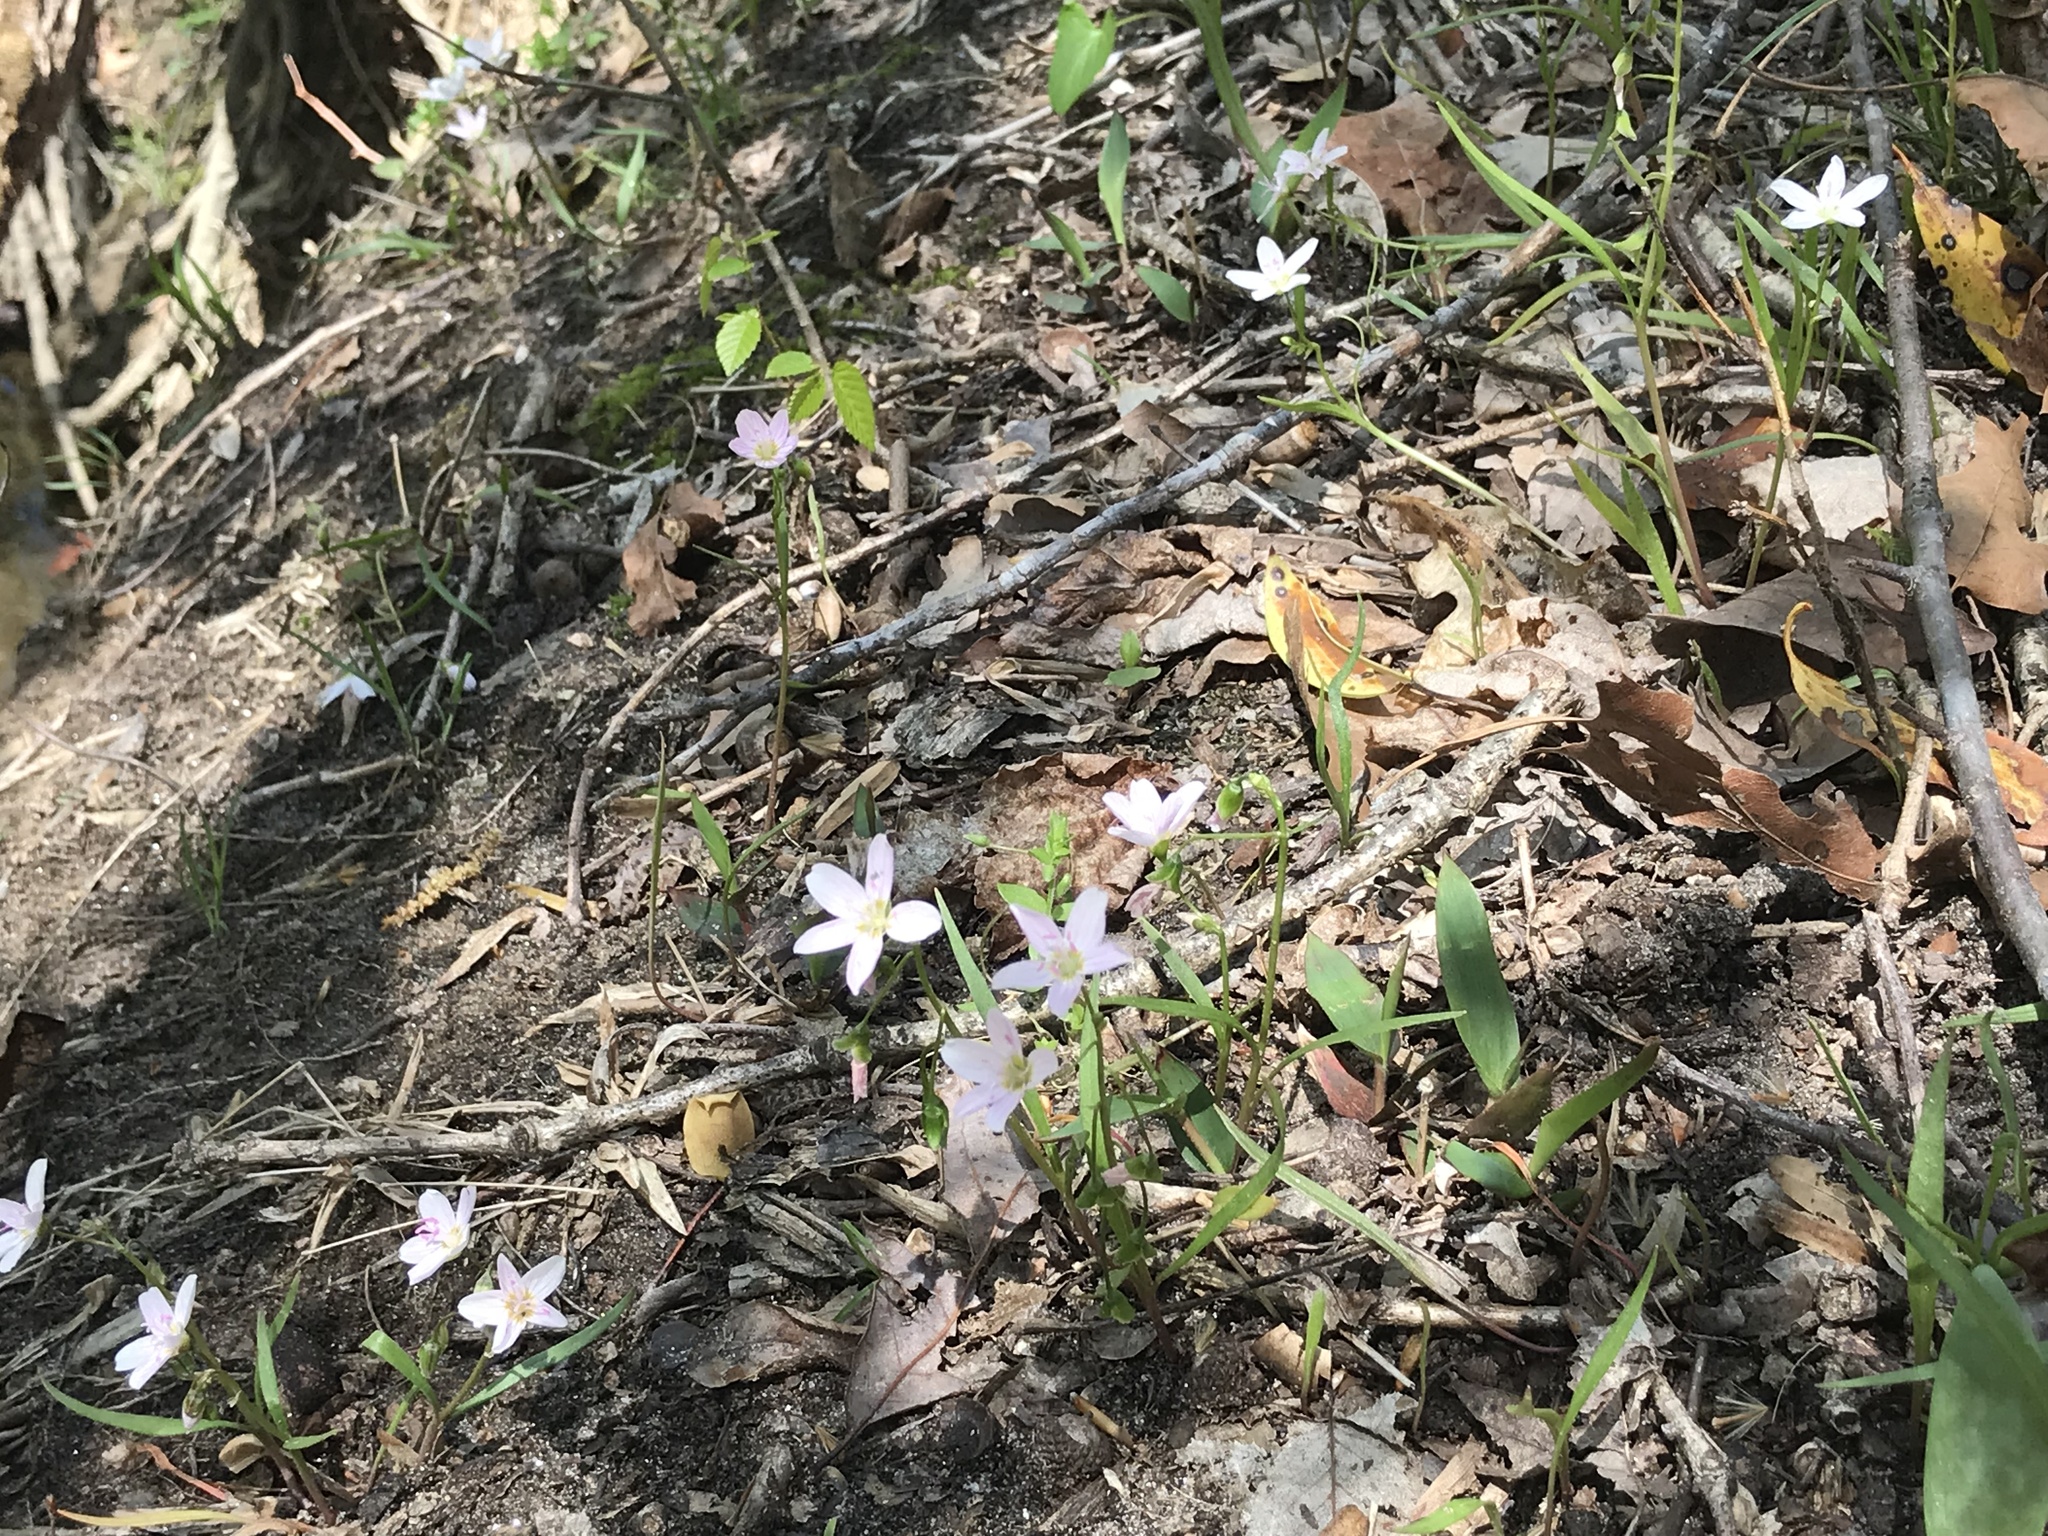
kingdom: Plantae
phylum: Tracheophyta
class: Magnoliopsida
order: Caryophyllales
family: Montiaceae
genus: Claytonia
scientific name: Claytonia virginica
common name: Virginia springbeauty
